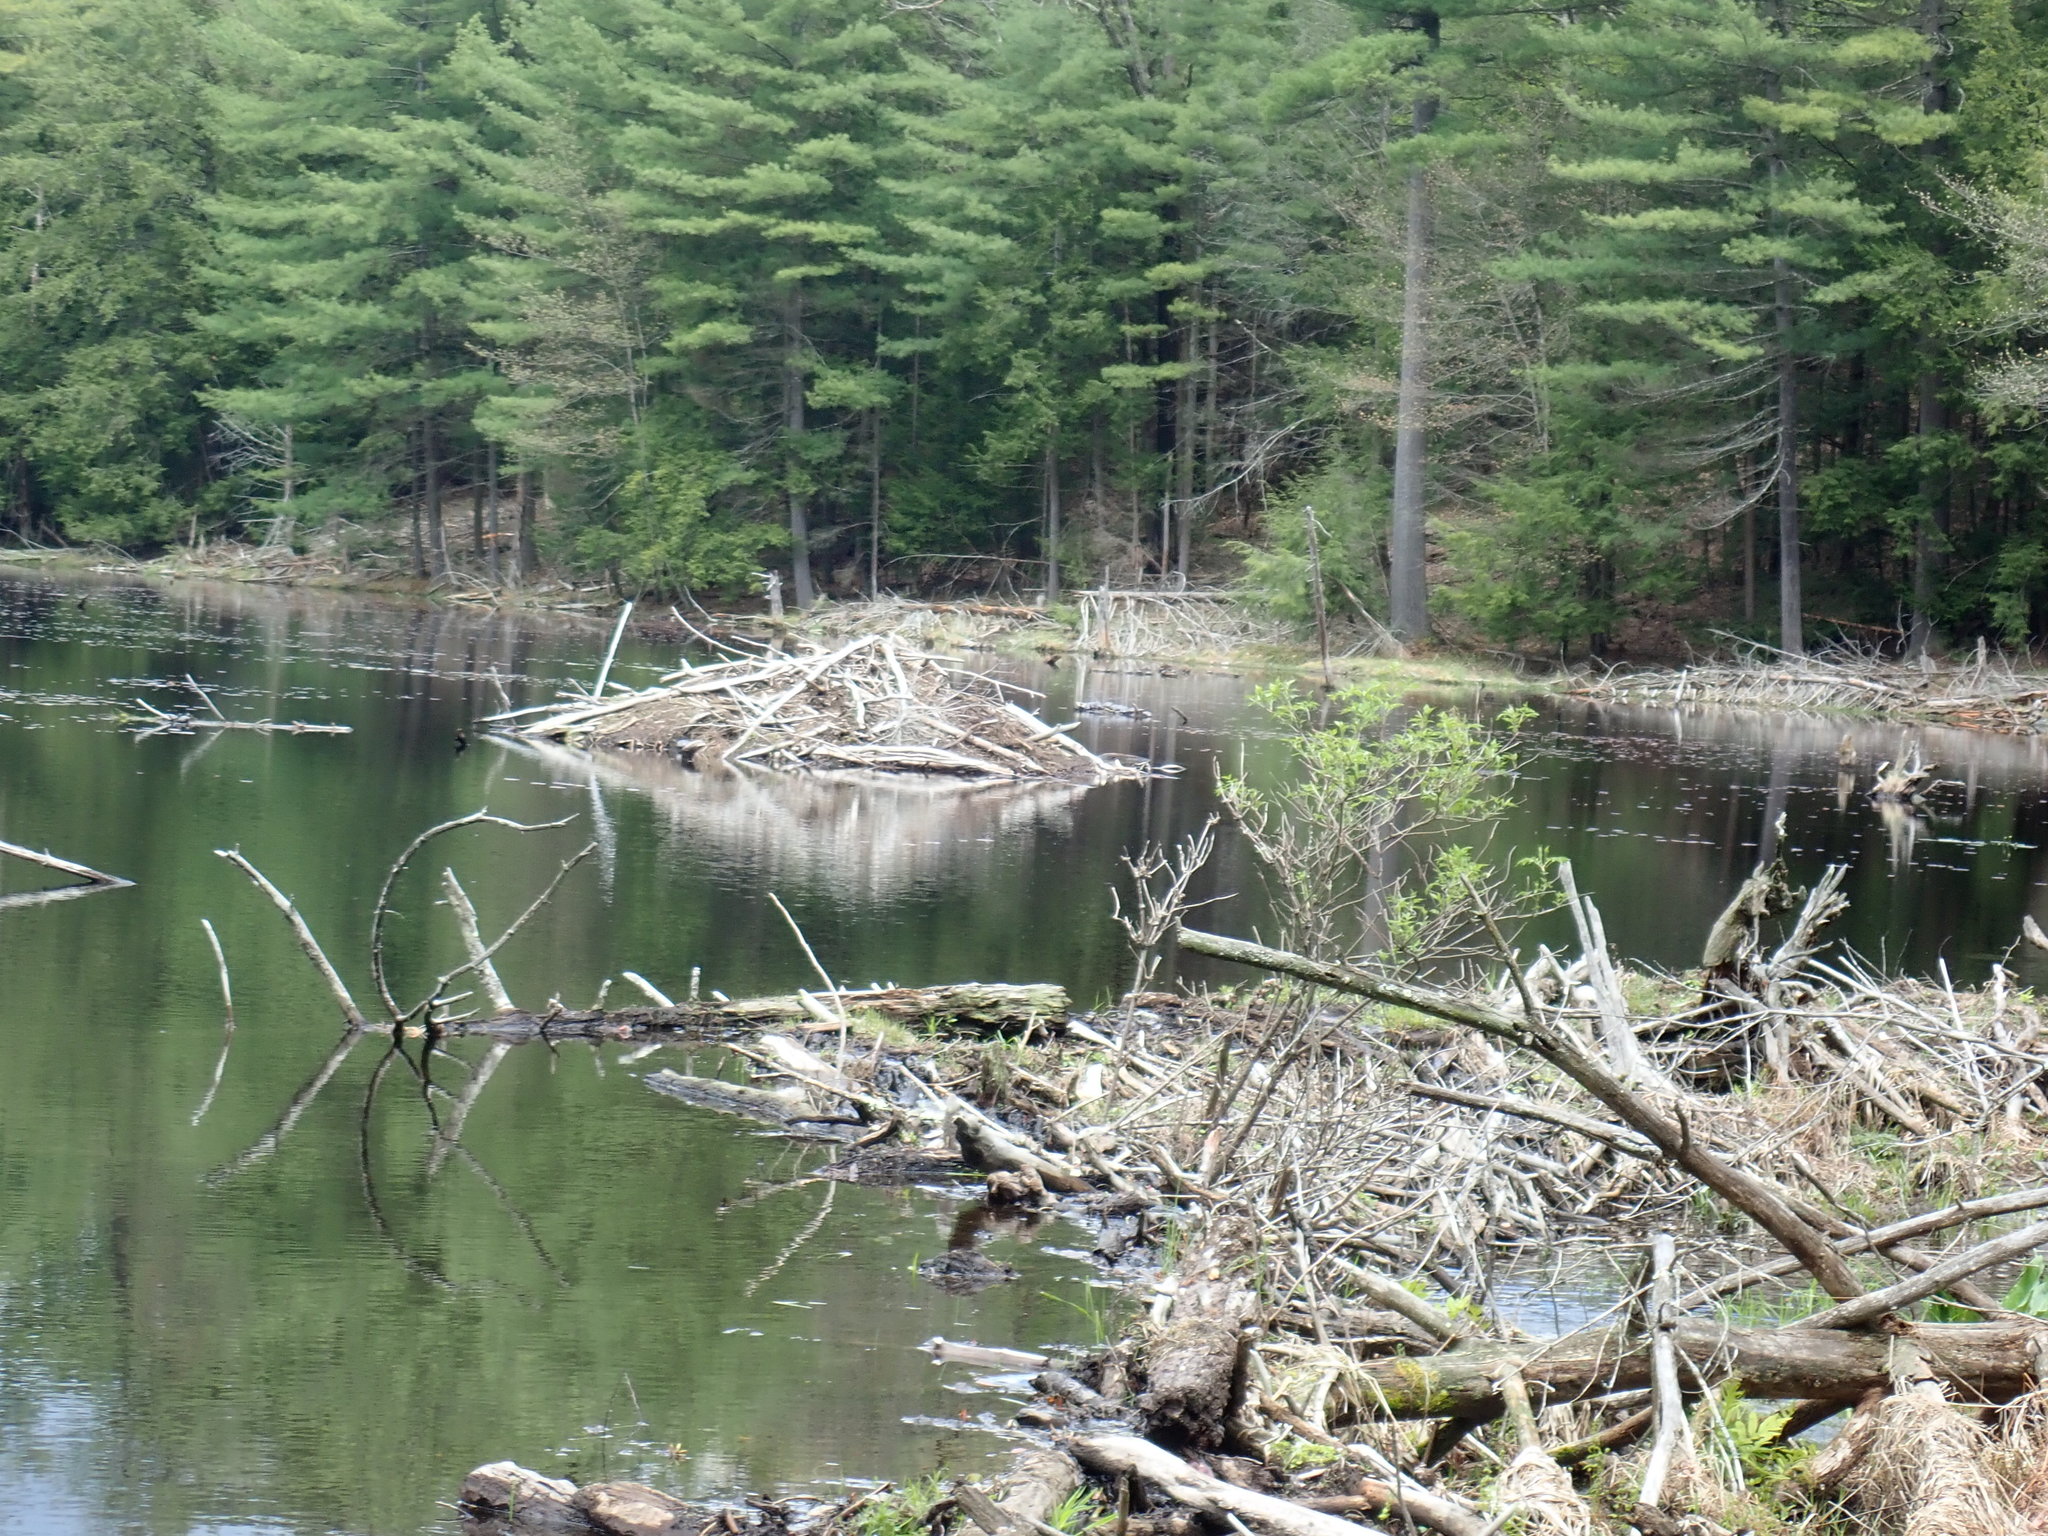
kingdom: Animalia
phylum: Chordata
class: Mammalia
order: Rodentia
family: Castoridae
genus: Castor
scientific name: Castor canadensis
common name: American beaver
